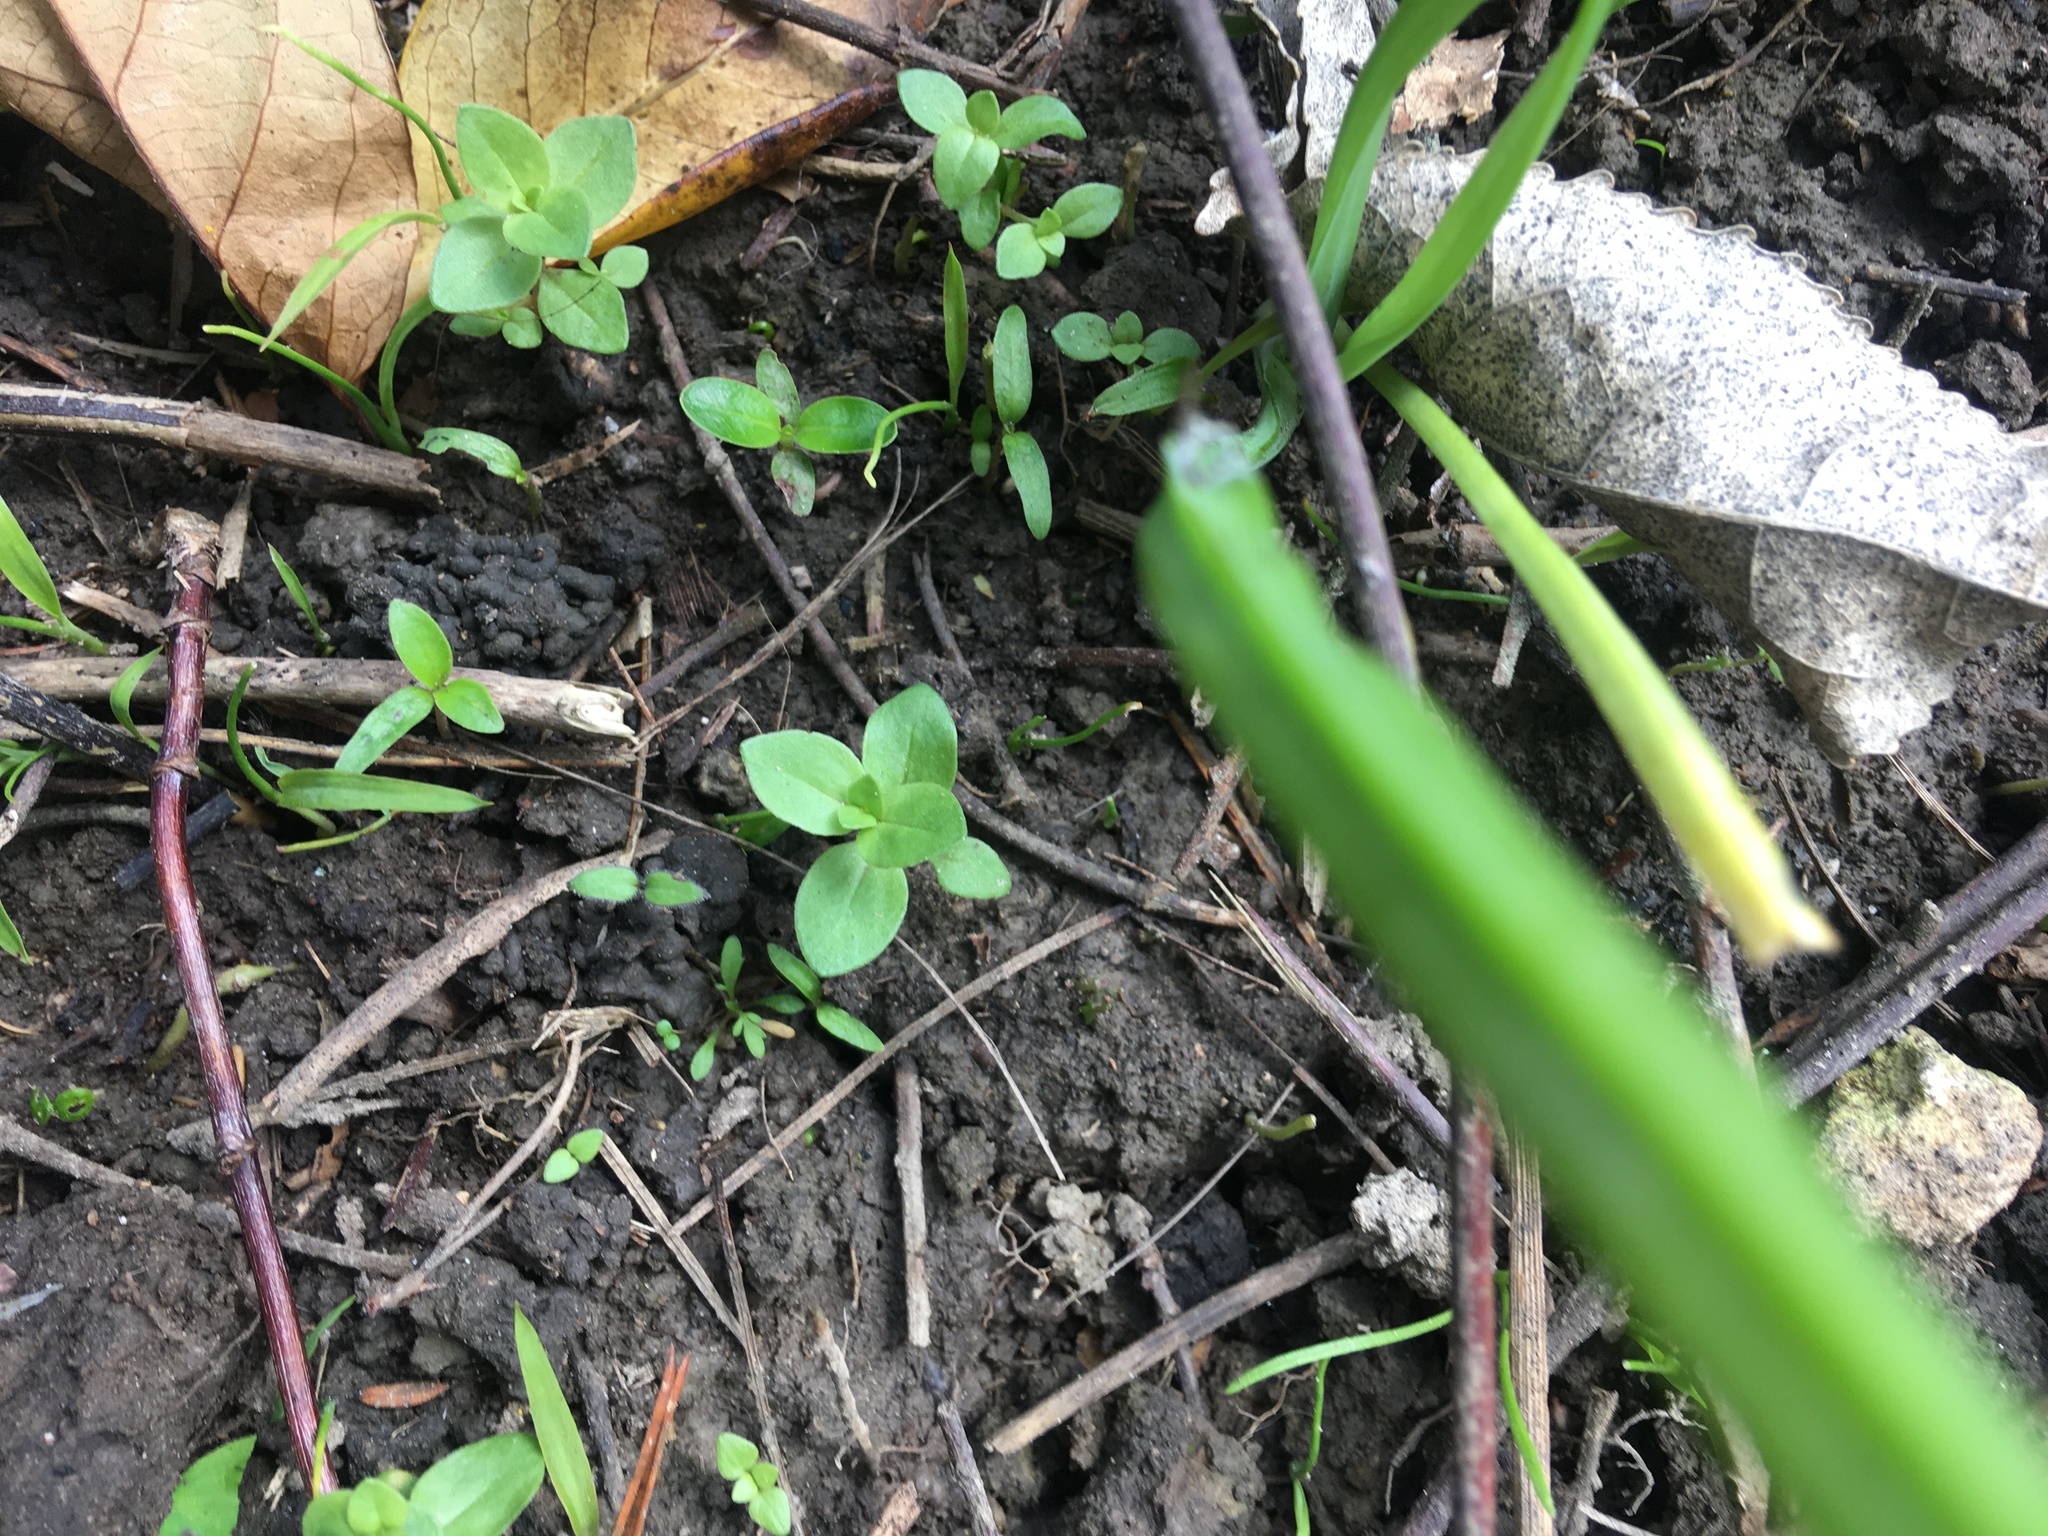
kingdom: Plantae
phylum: Tracheophyta
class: Magnoliopsida
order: Ericales
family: Primulaceae
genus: Lysimachia
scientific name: Lysimachia arvensis
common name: Scarlet pimpernel
